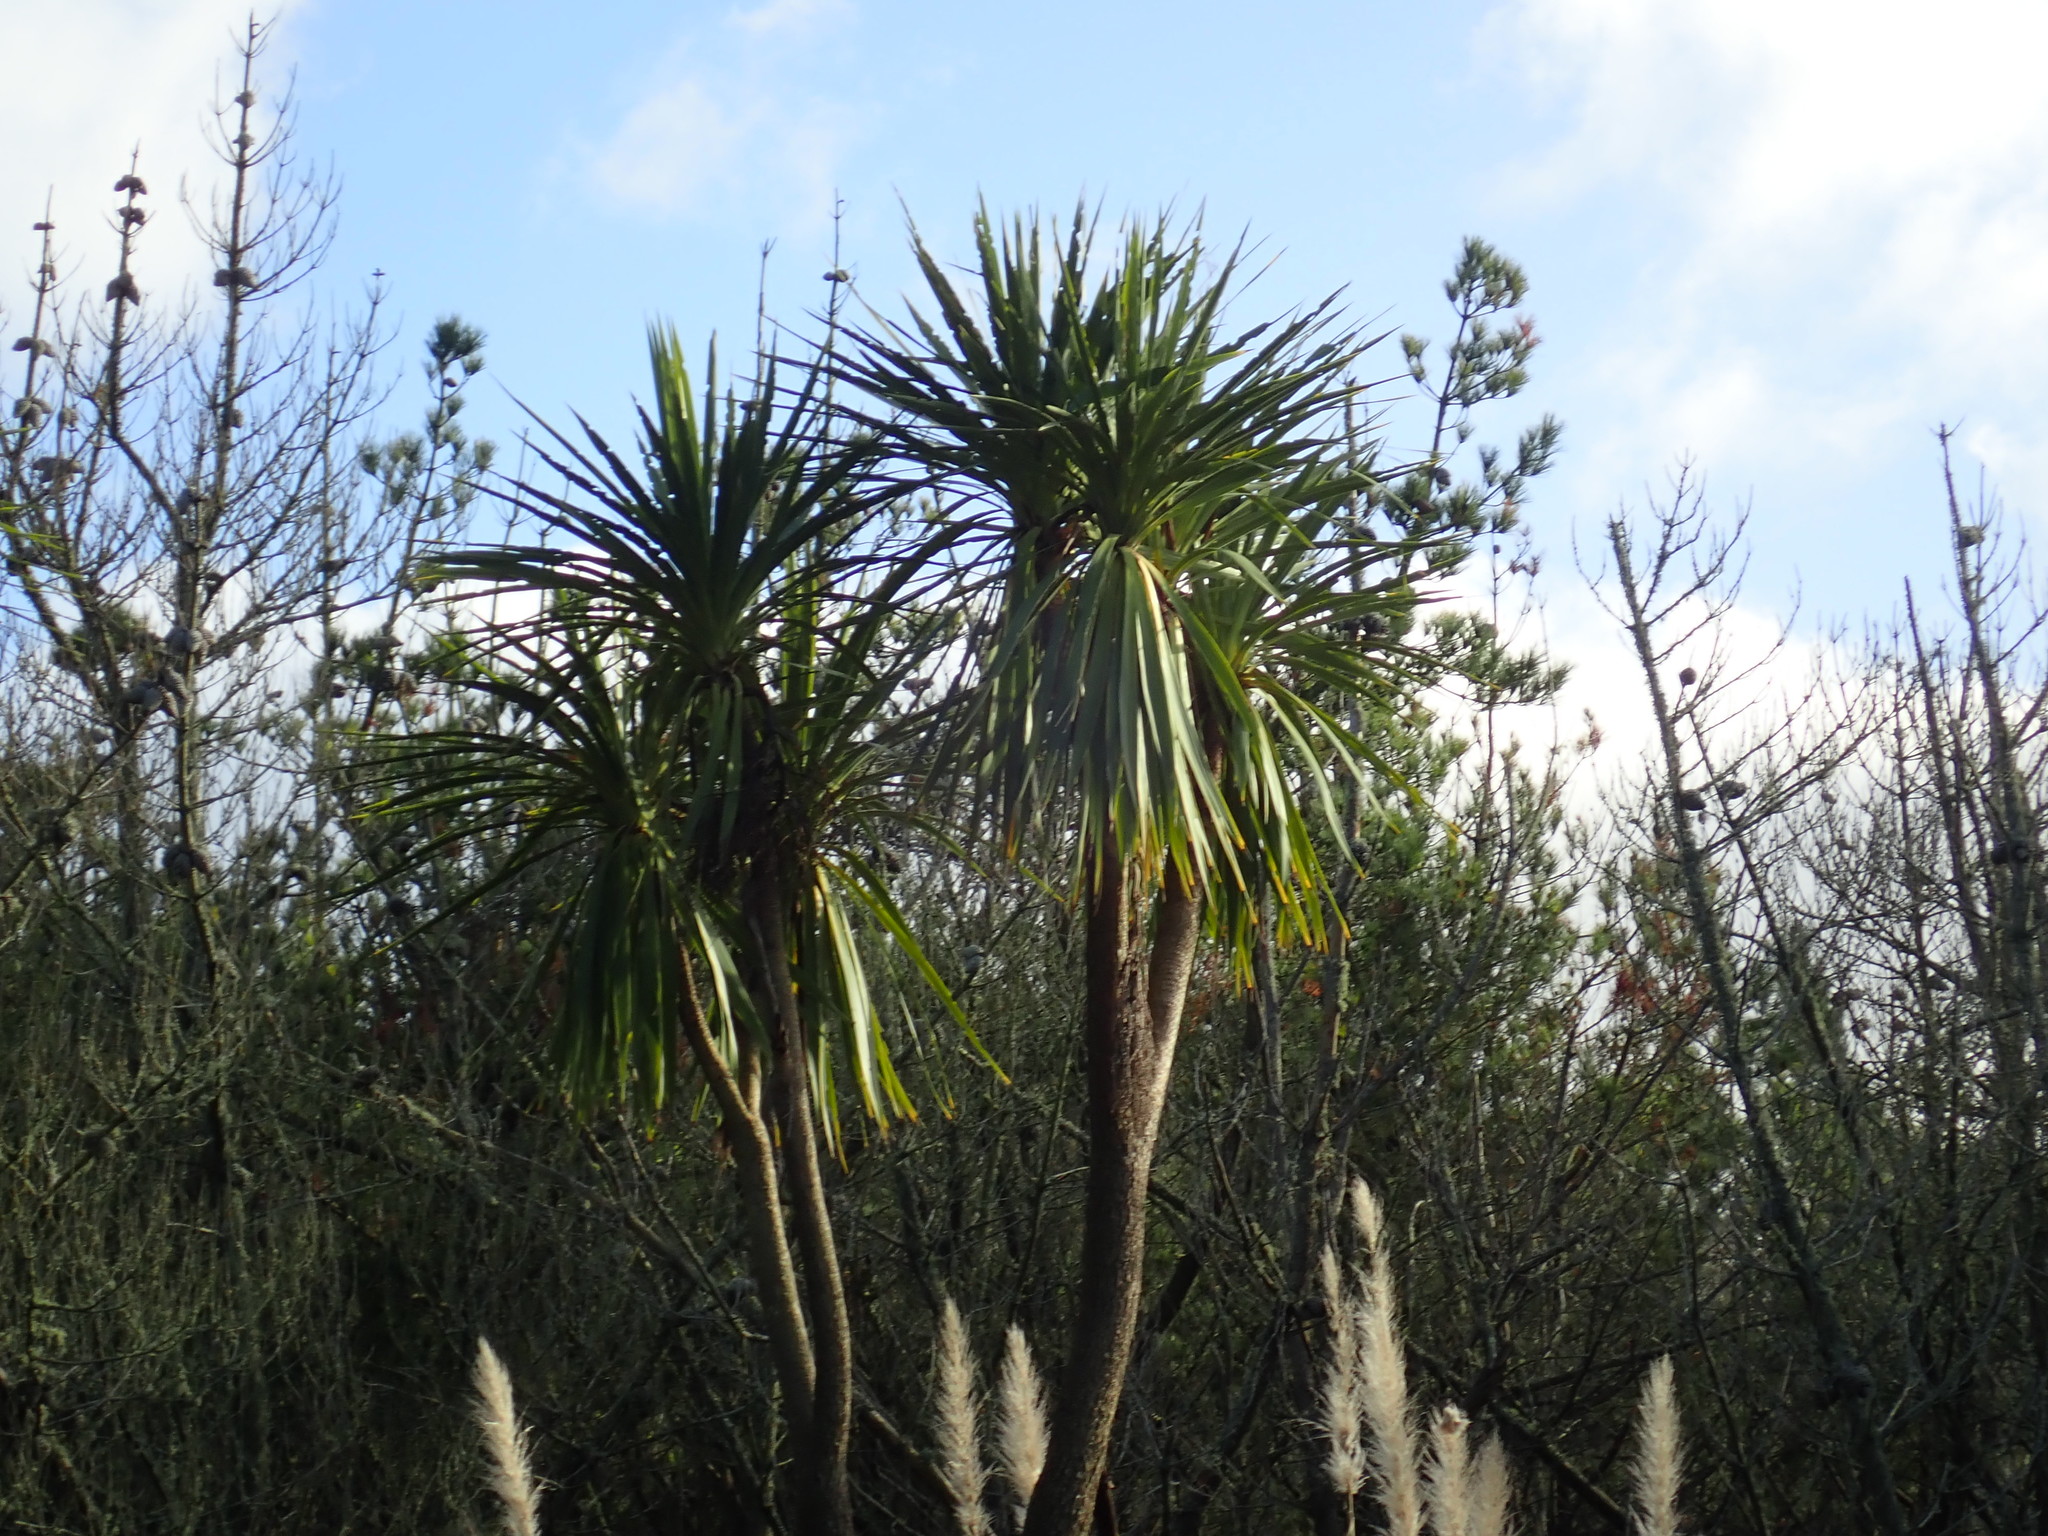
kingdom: Plantae
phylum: Tracheophyta
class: Liliopsida
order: Asparagales
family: Asparagaceae
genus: Cordyline
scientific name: Cordyline australis
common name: Cabbage-palm
